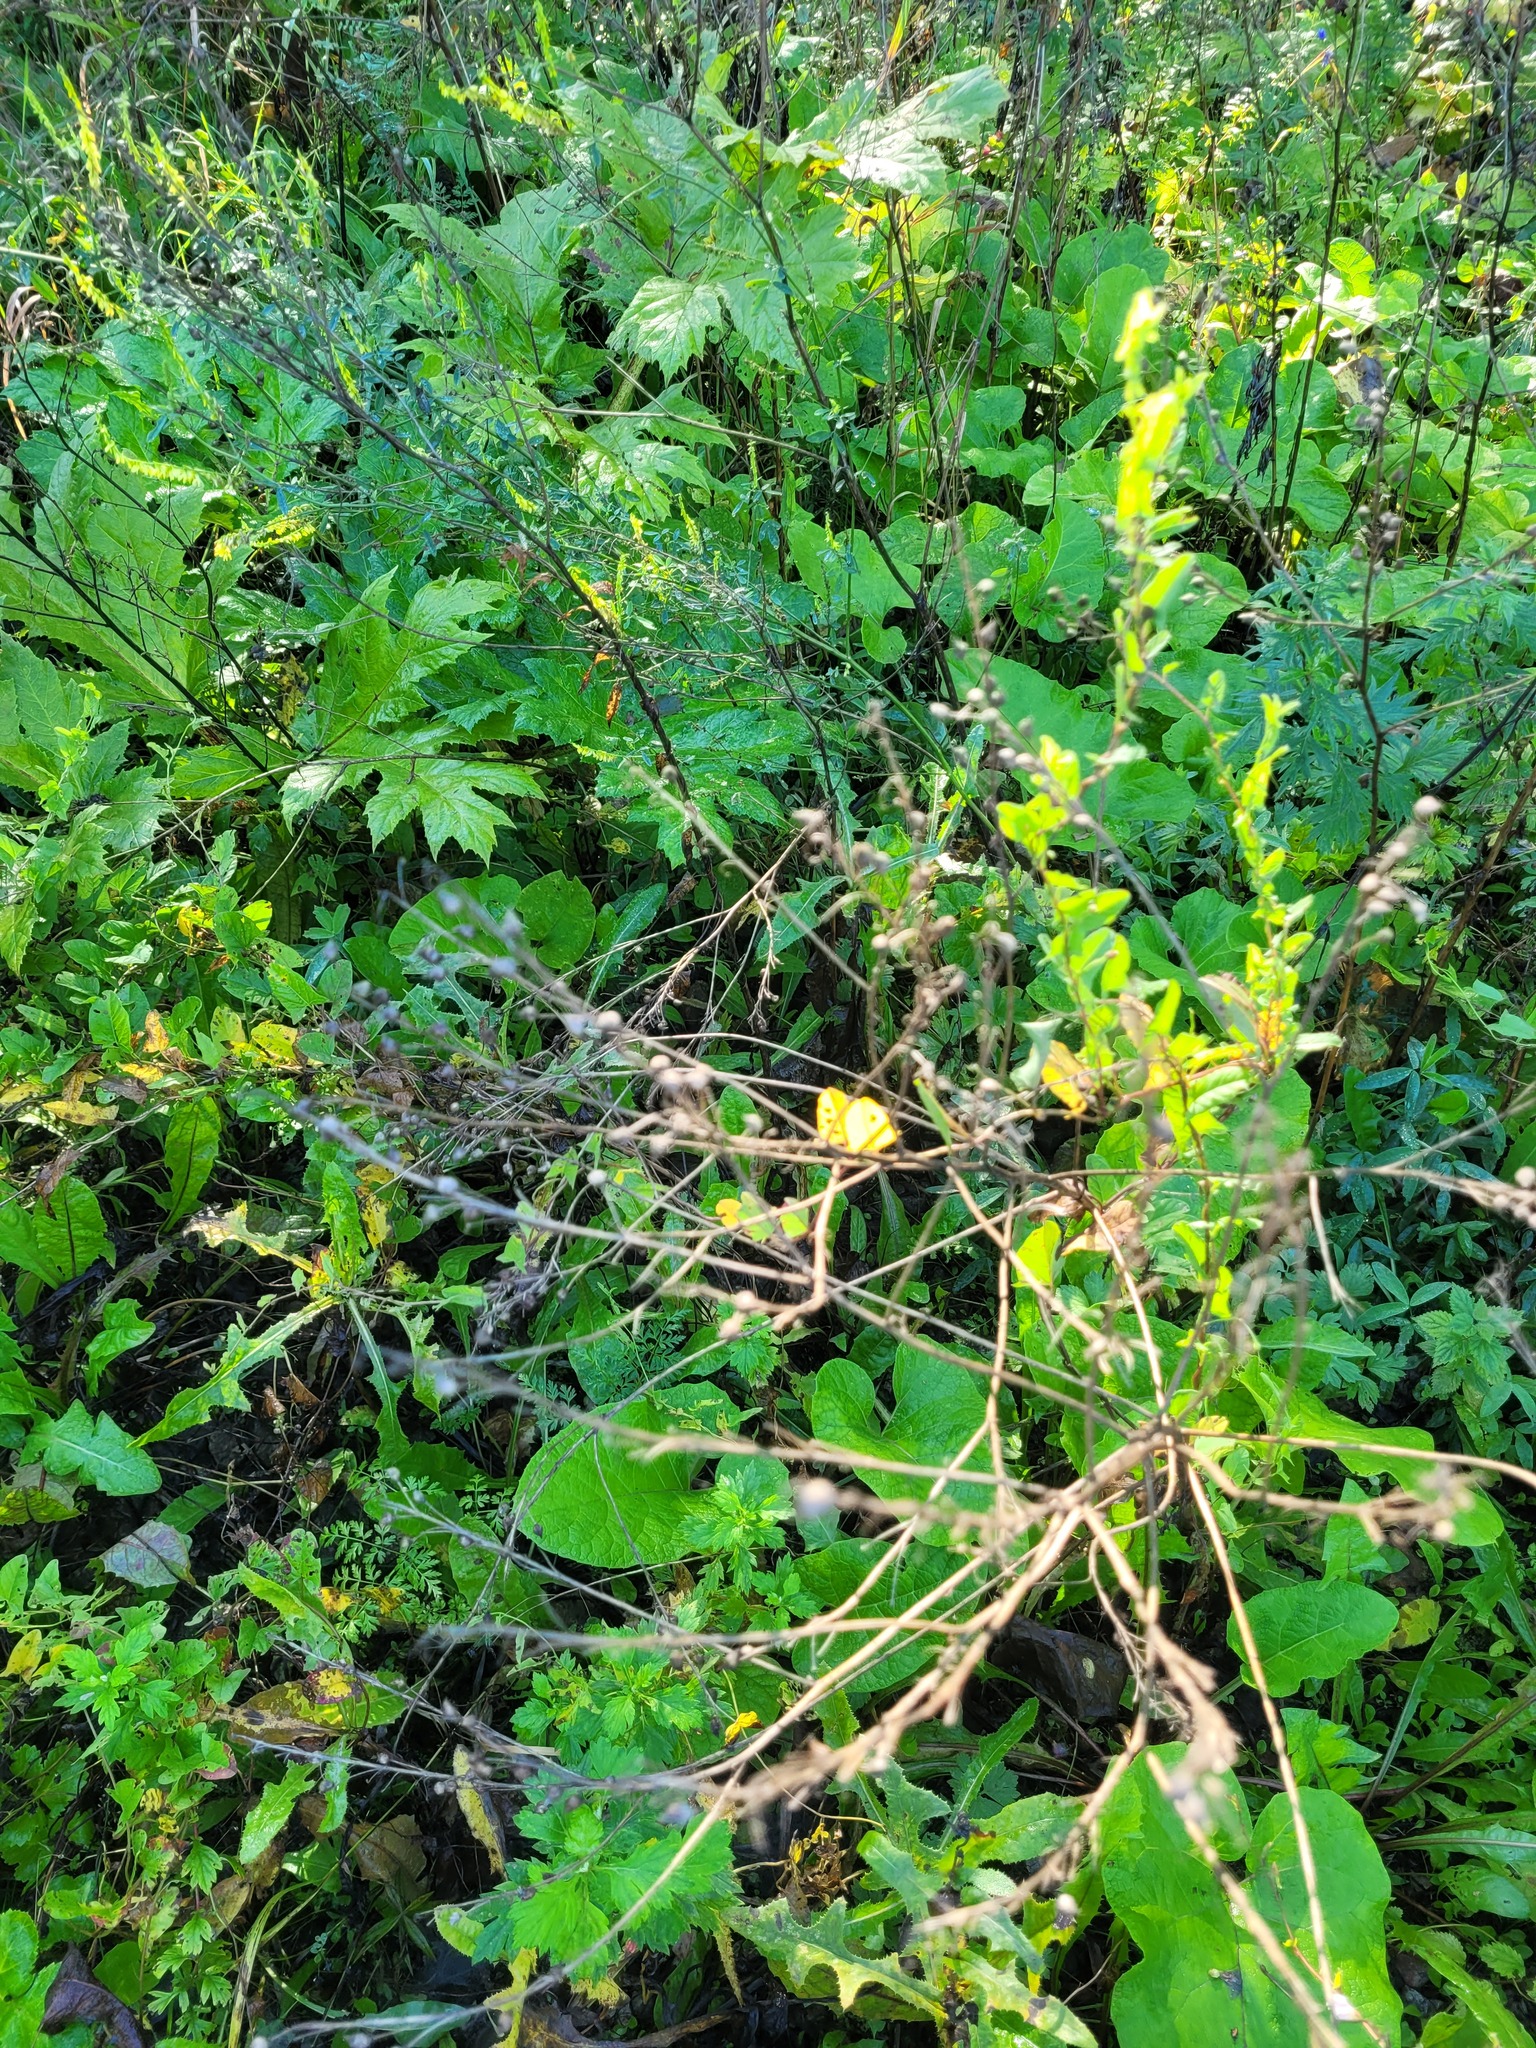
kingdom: Plantae
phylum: Tracheophyta
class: Magnoliopsida
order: Brassicales
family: Brassicaceae
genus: Bunias
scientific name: Bunias orientalis
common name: Warty-cabbage
